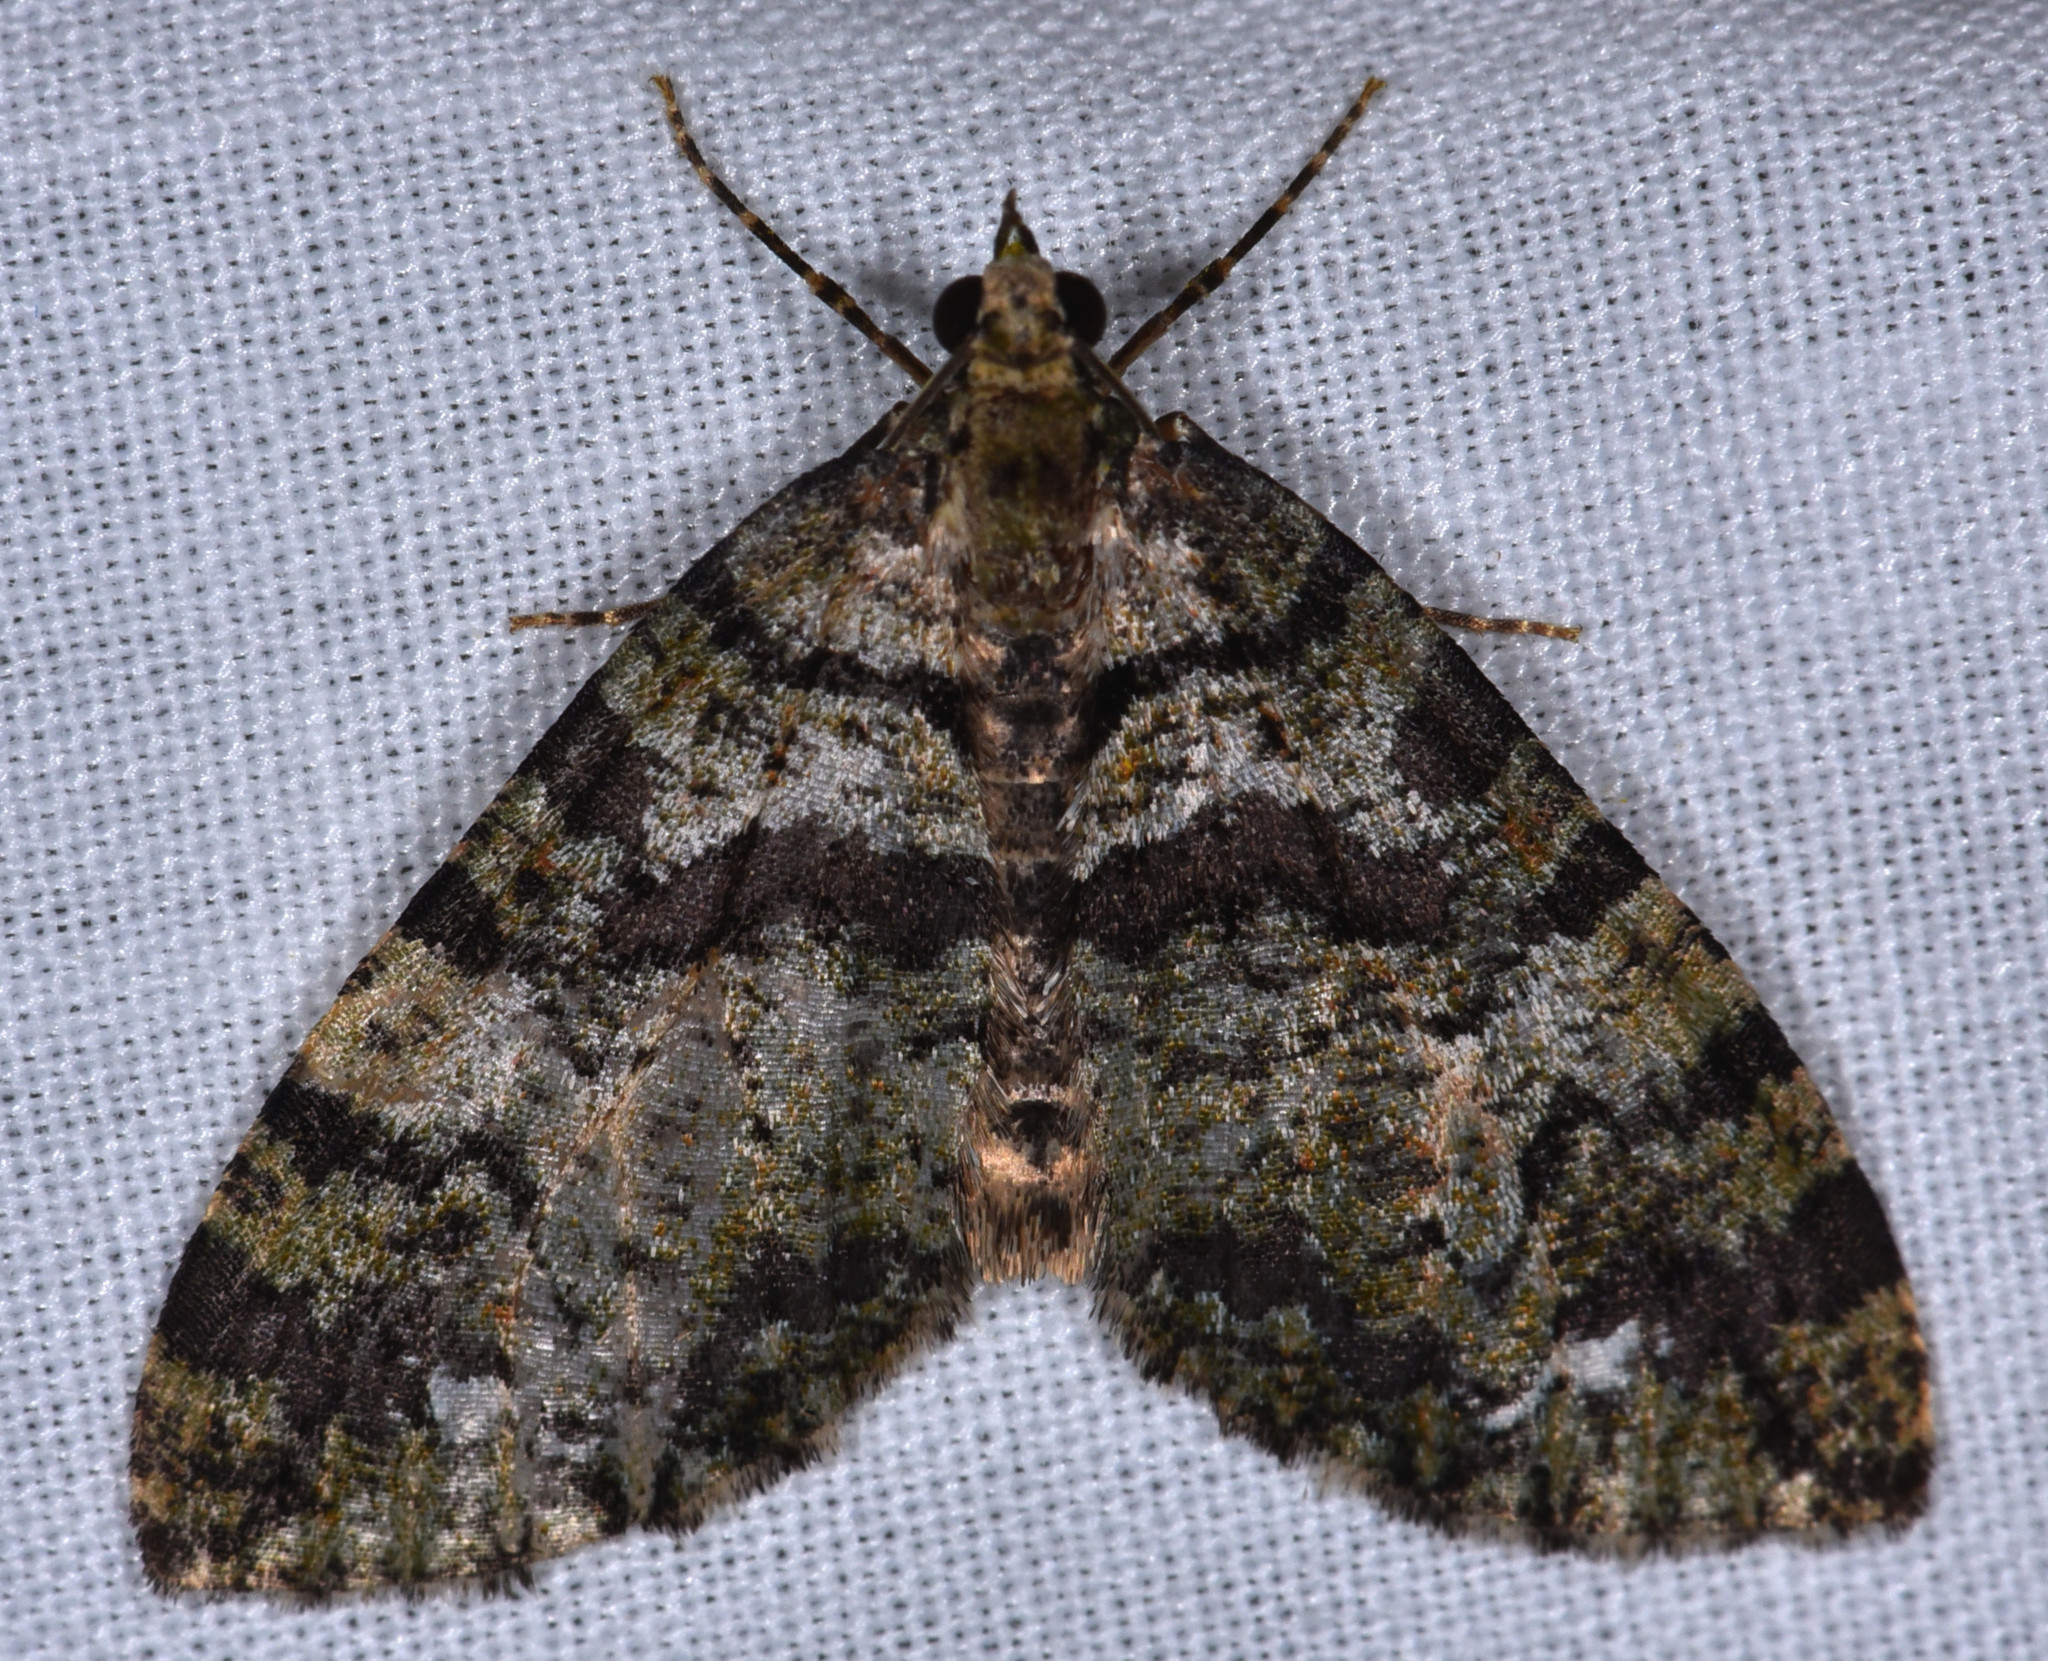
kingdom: Animalia
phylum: Arthropoda
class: Insecta
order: Lepidoptera
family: Geometridae
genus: Hydriomena
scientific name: Hydriomena albifasciata
